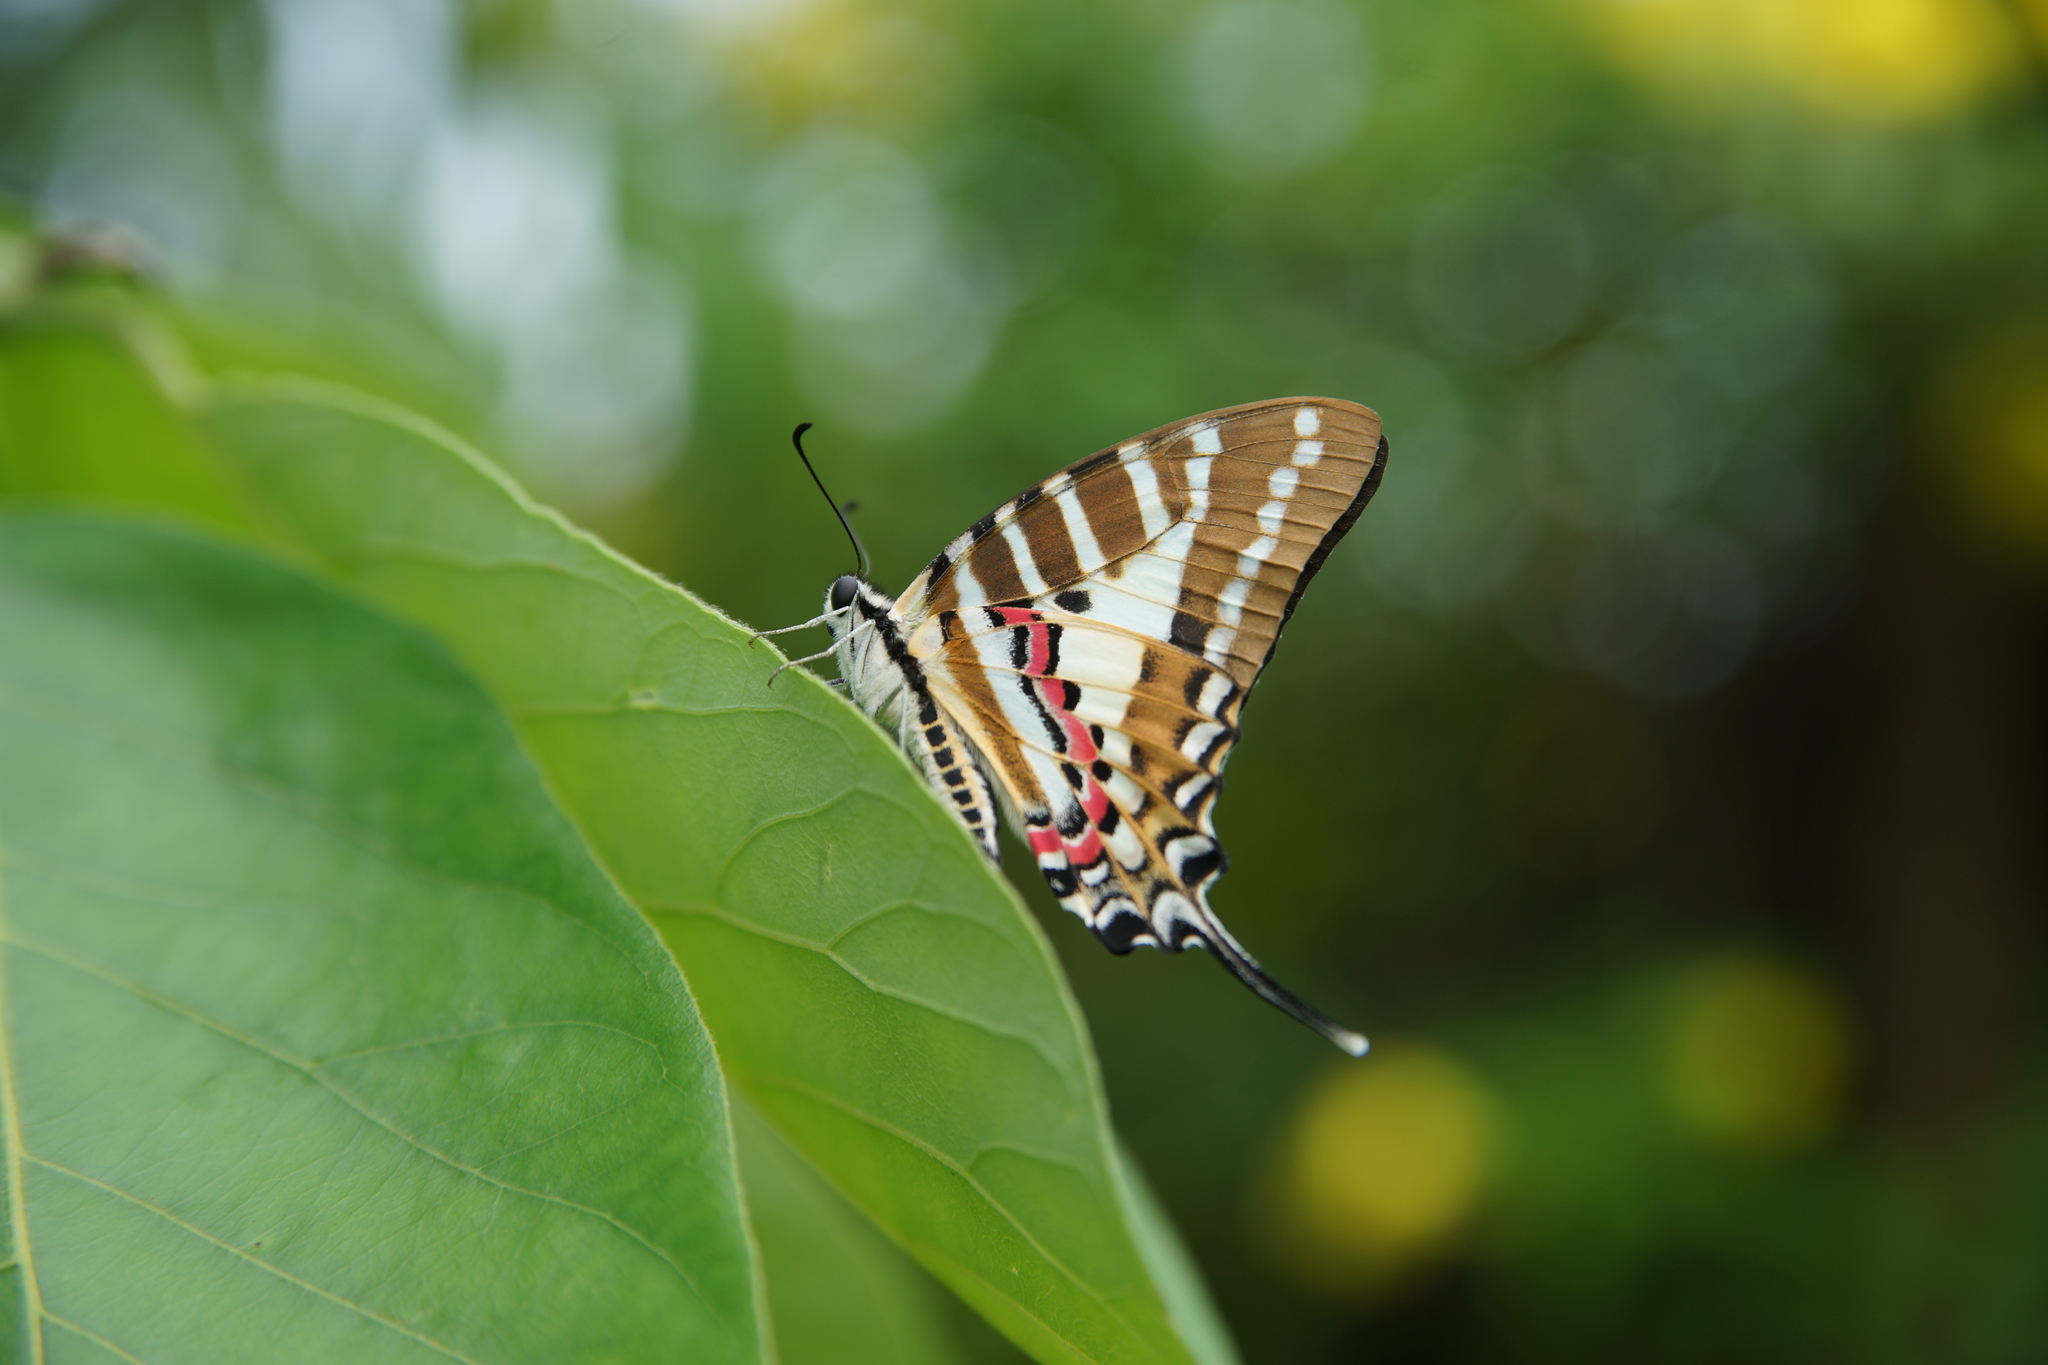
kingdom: Animalia
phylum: Arthropoda
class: Insecta
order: Lepidoptera
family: Papilionidae
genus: Graphium
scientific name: Graphium nomius
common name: Spot swordtail
